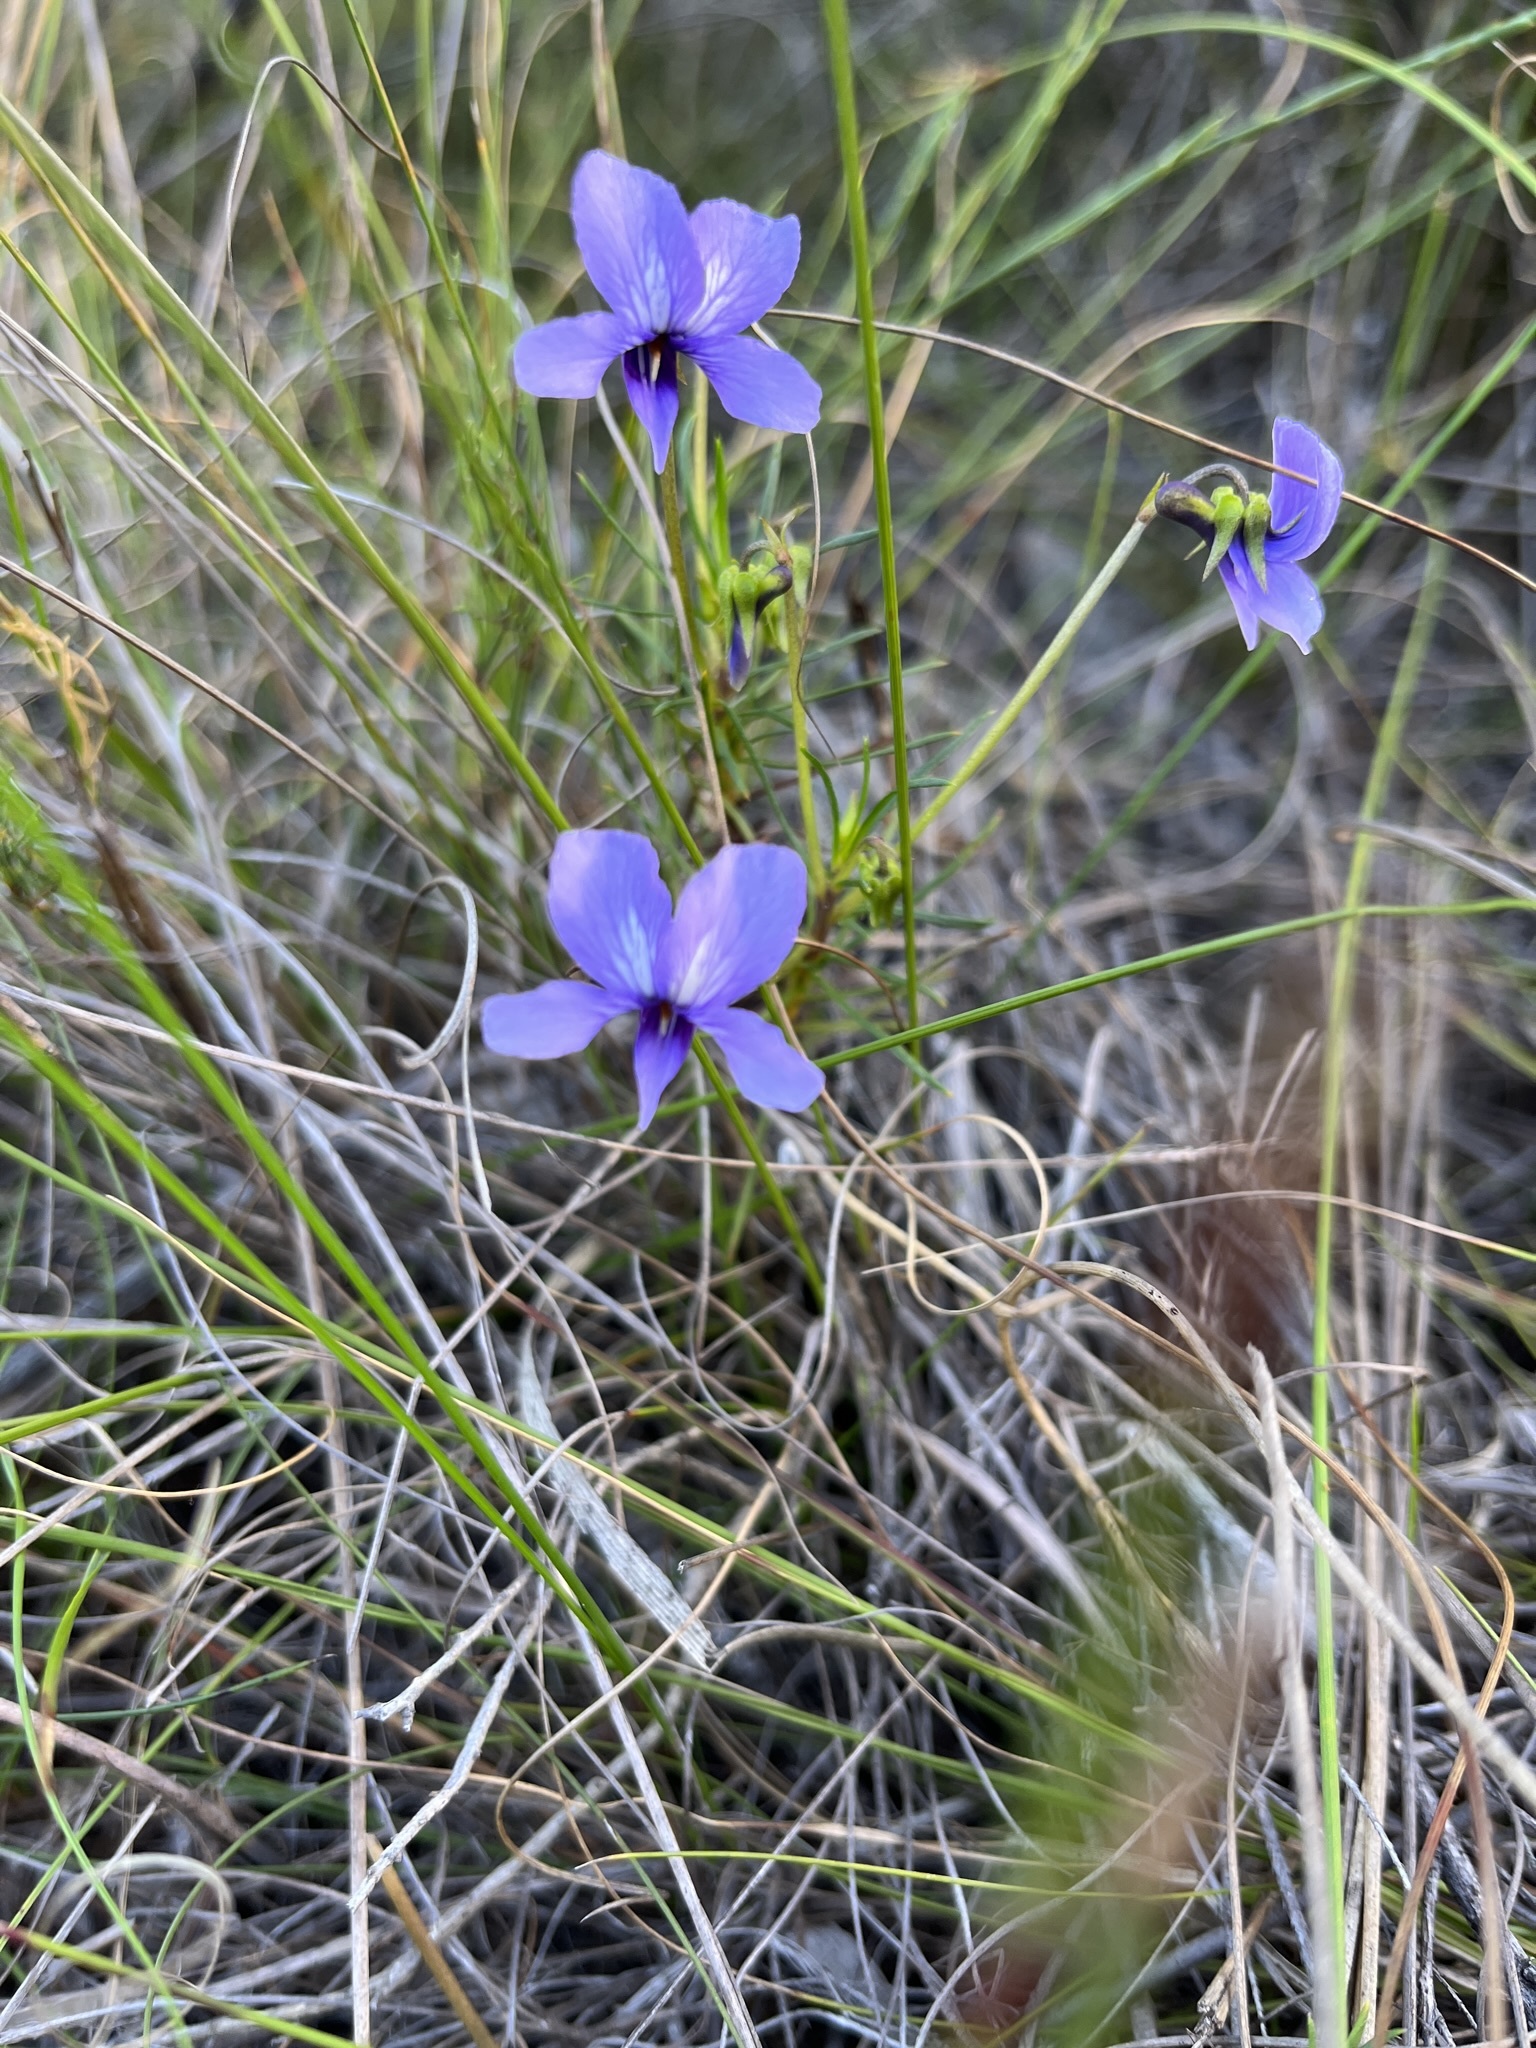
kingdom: Plantae
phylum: Tracheophyta
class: Magnoliopsida
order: Malpighiales
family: Violaceae
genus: Viola
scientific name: Viola decumbens
